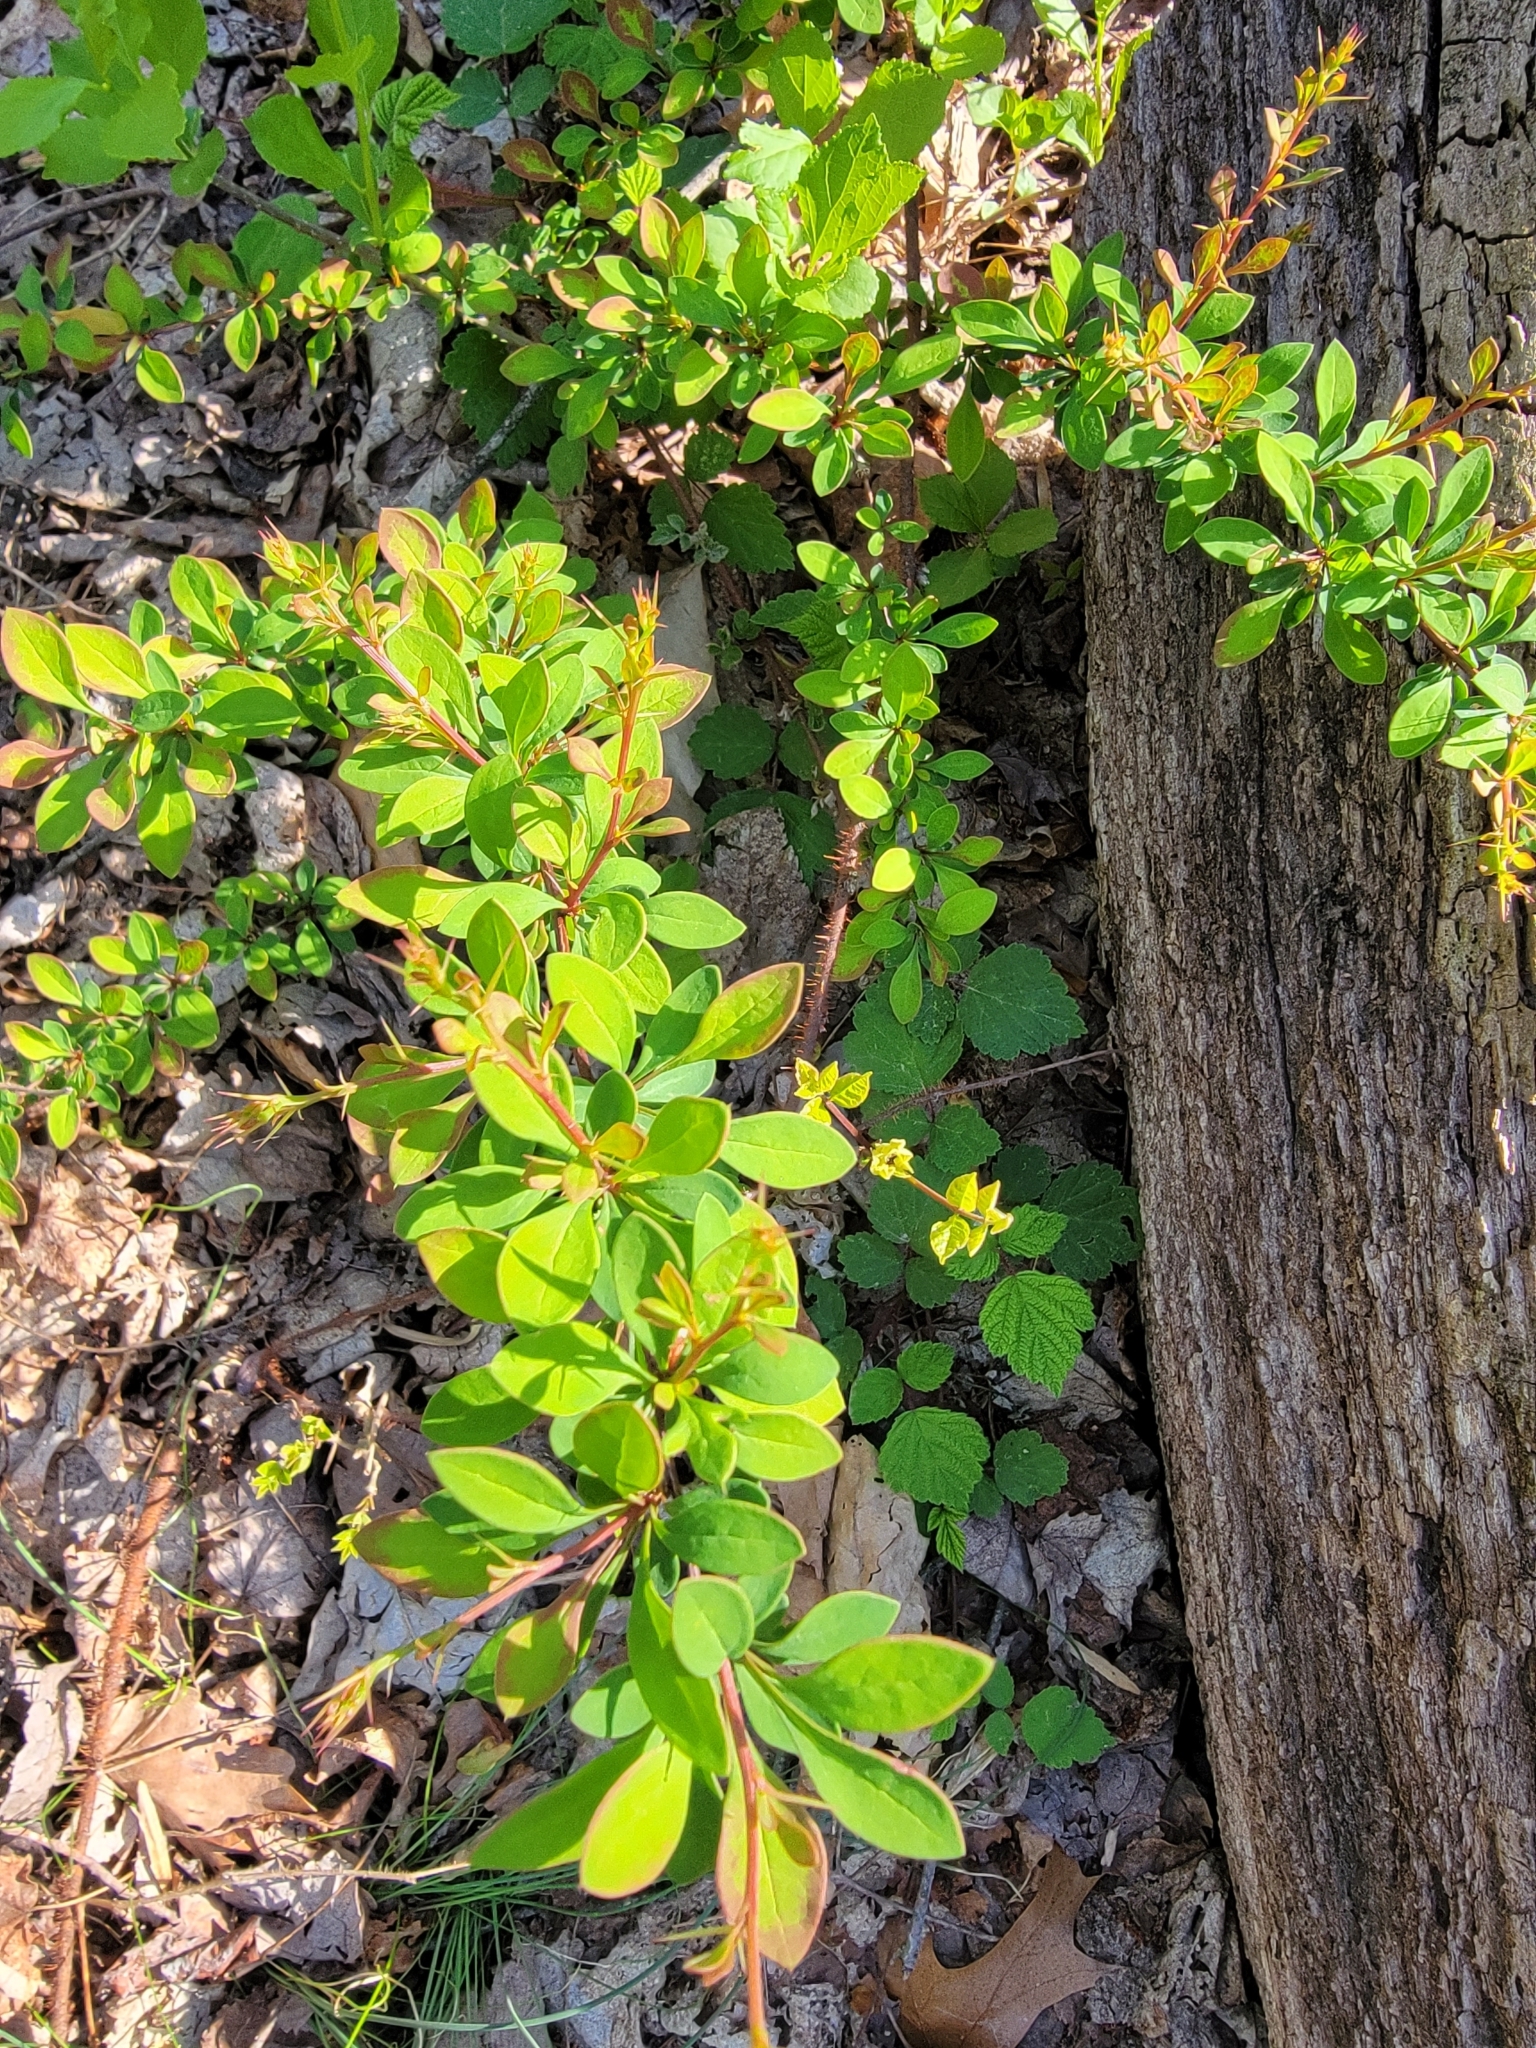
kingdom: Plantae
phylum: Tracheophyta
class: Magnoliopsida
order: Ranunculales
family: Berberidaceae
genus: Berberis
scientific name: Berberis thunbergii
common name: Japanese barberry
